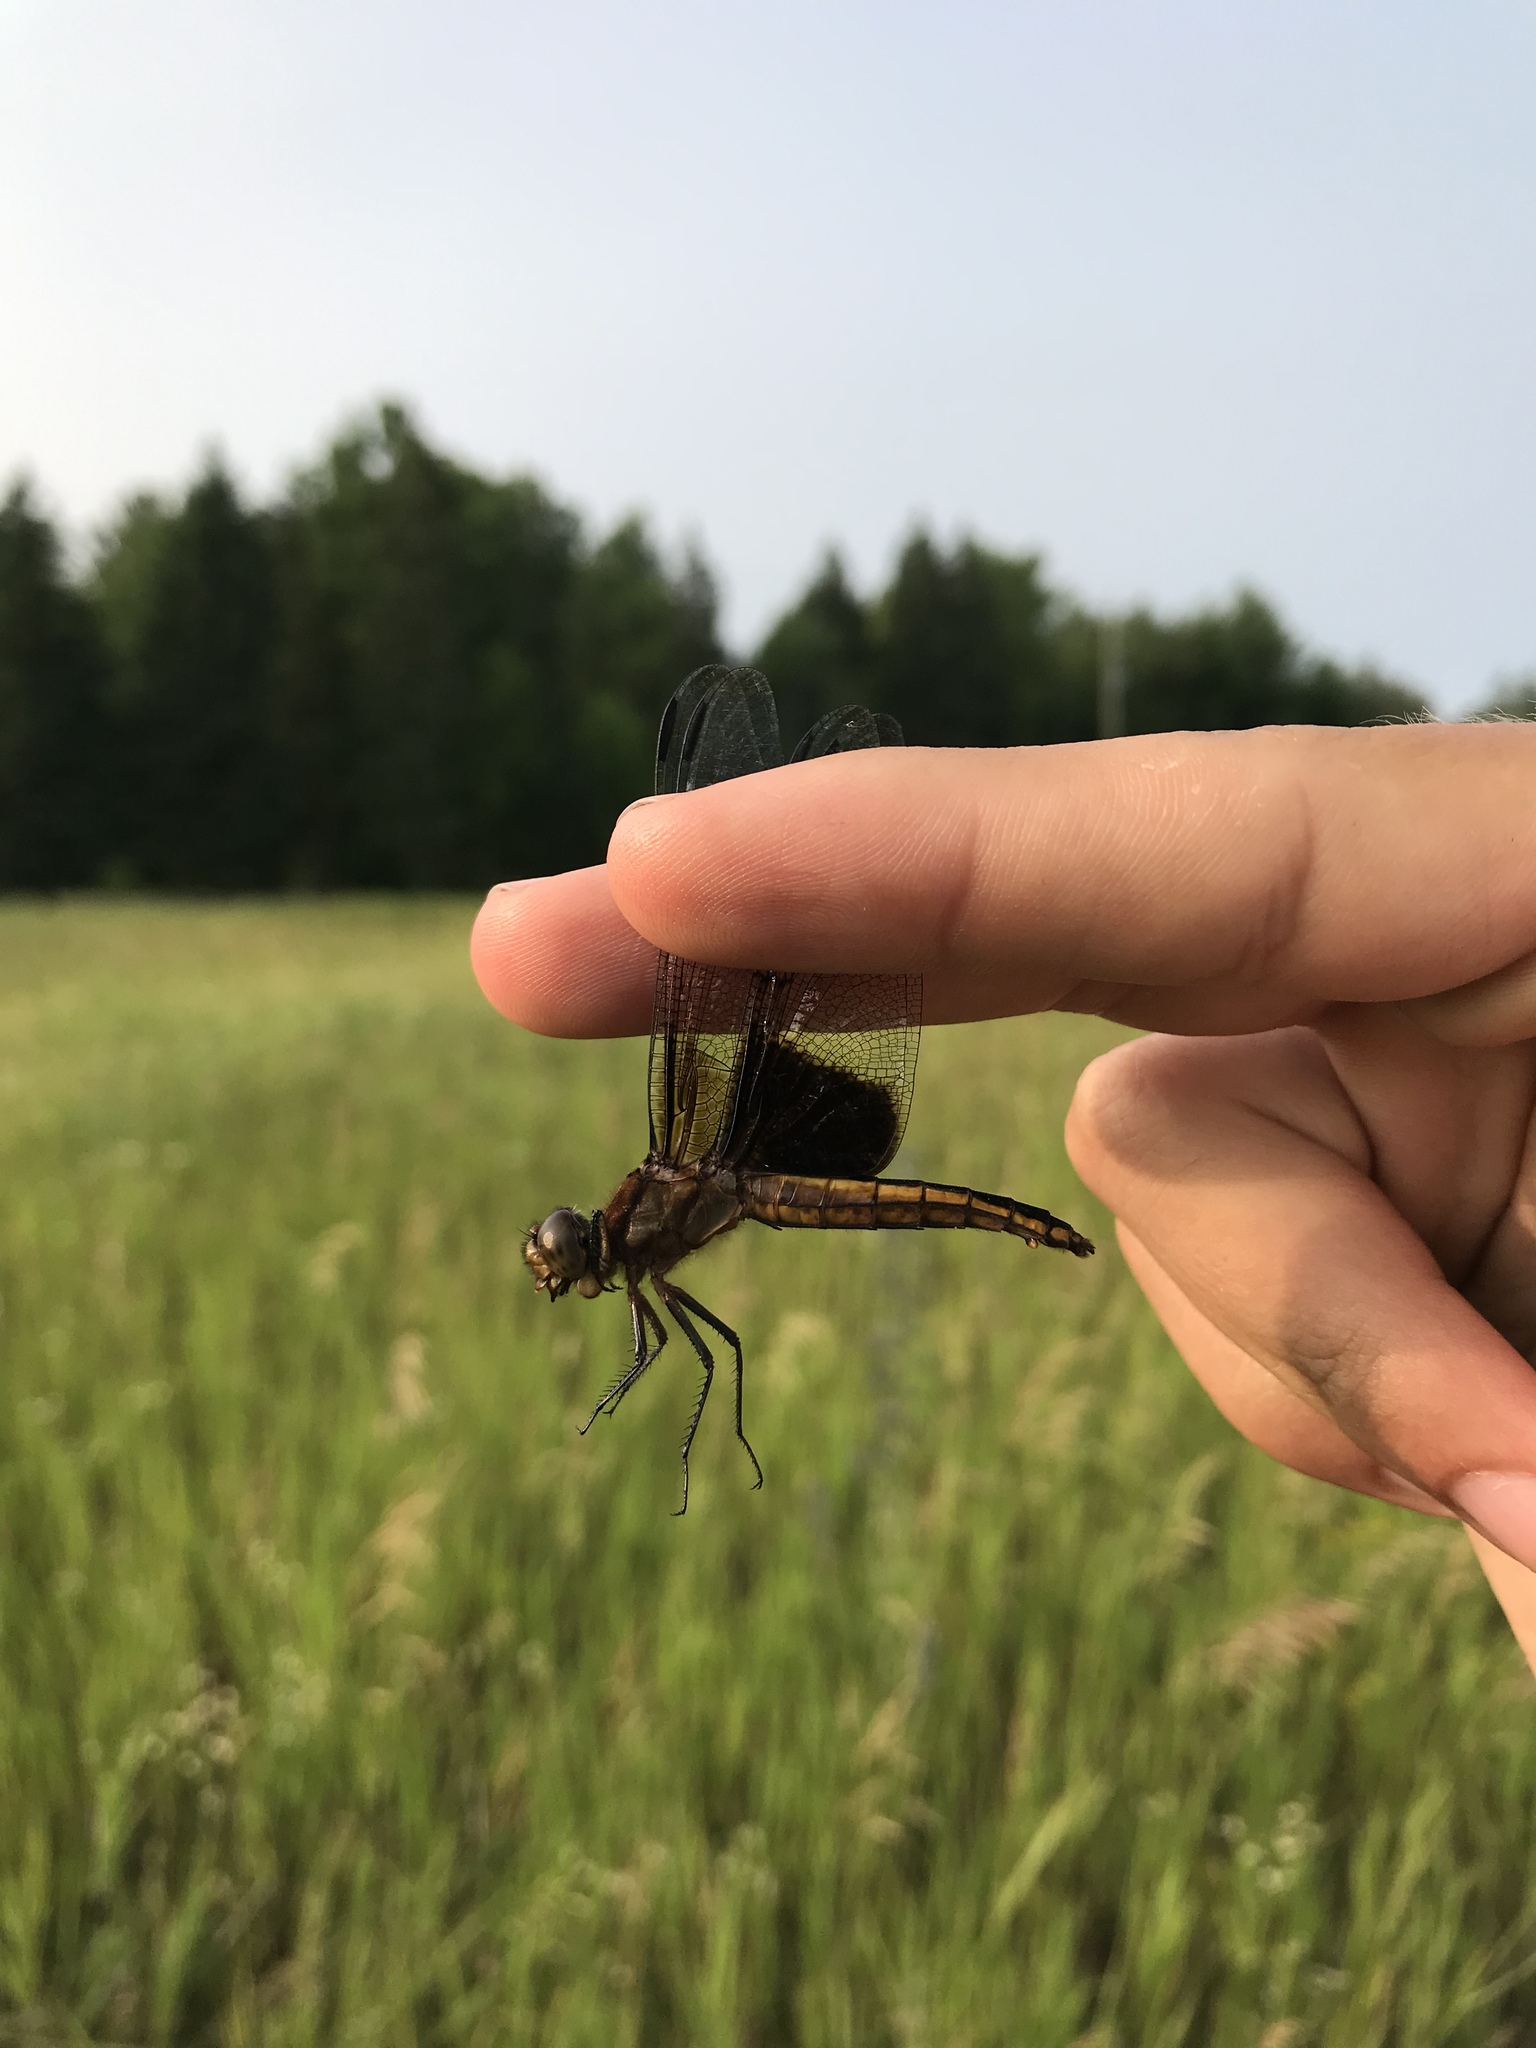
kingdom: Animalia
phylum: Arthropoda
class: Insecta
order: Odonata
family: Libellulidae
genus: Libellula
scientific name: Libellula luctuosa
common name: Widow skimmer
